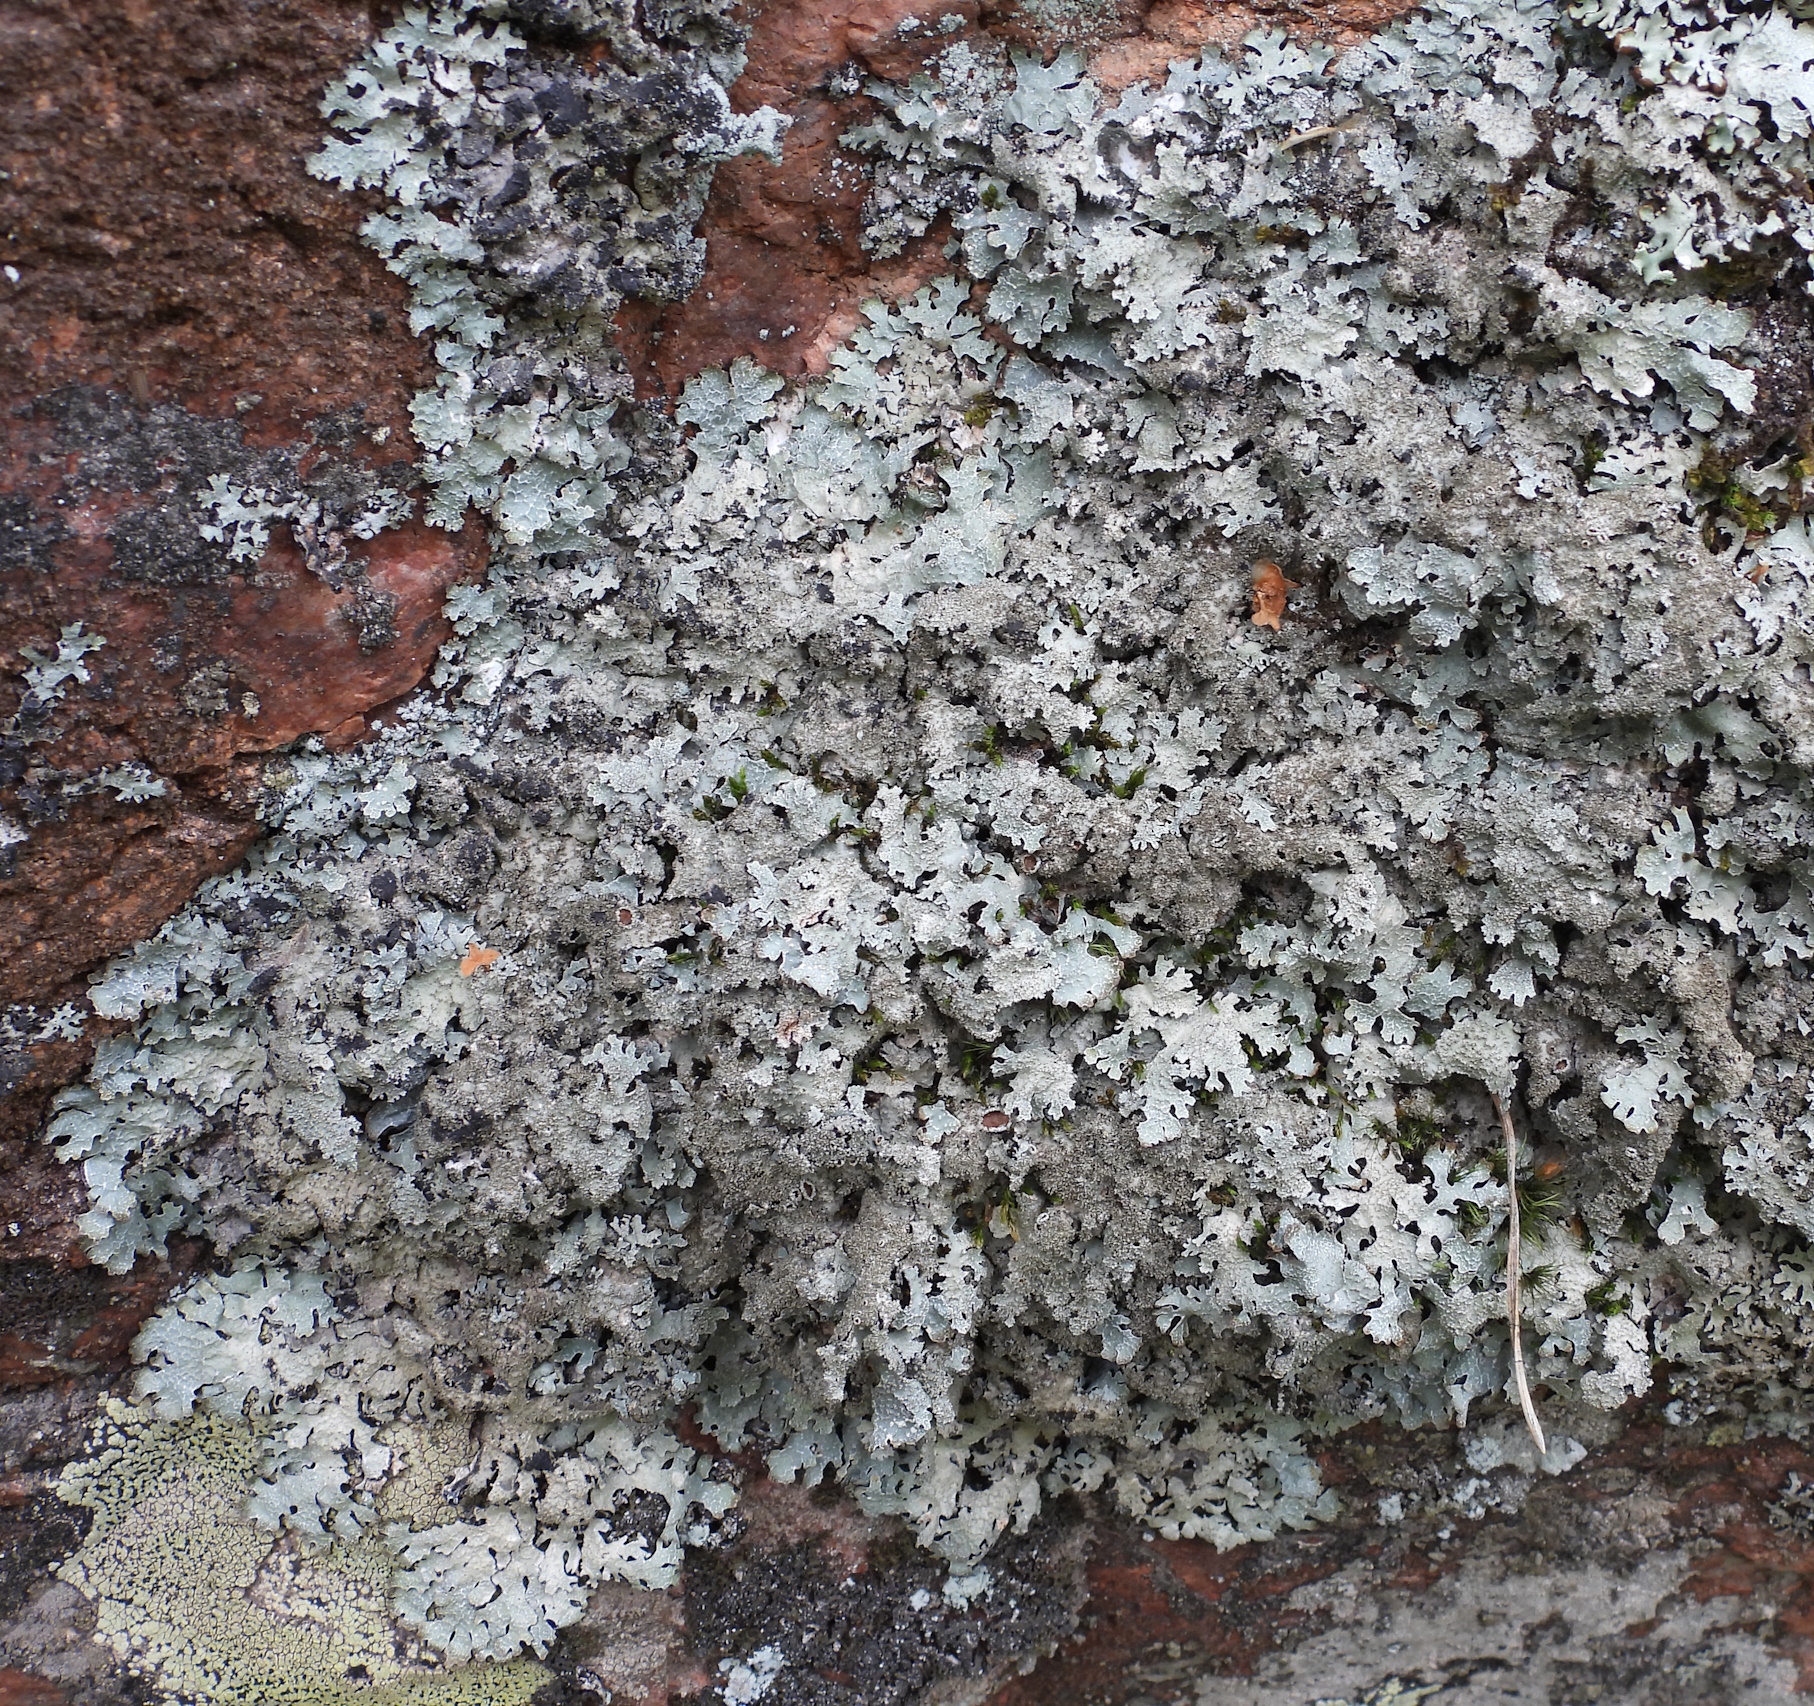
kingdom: Fungi
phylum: Ascomycota
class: Lecanoromycetes
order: Lecanorales
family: Parmeliaceae
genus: Parmelia
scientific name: Parmelia saxatilis
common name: Salted shield lichen
